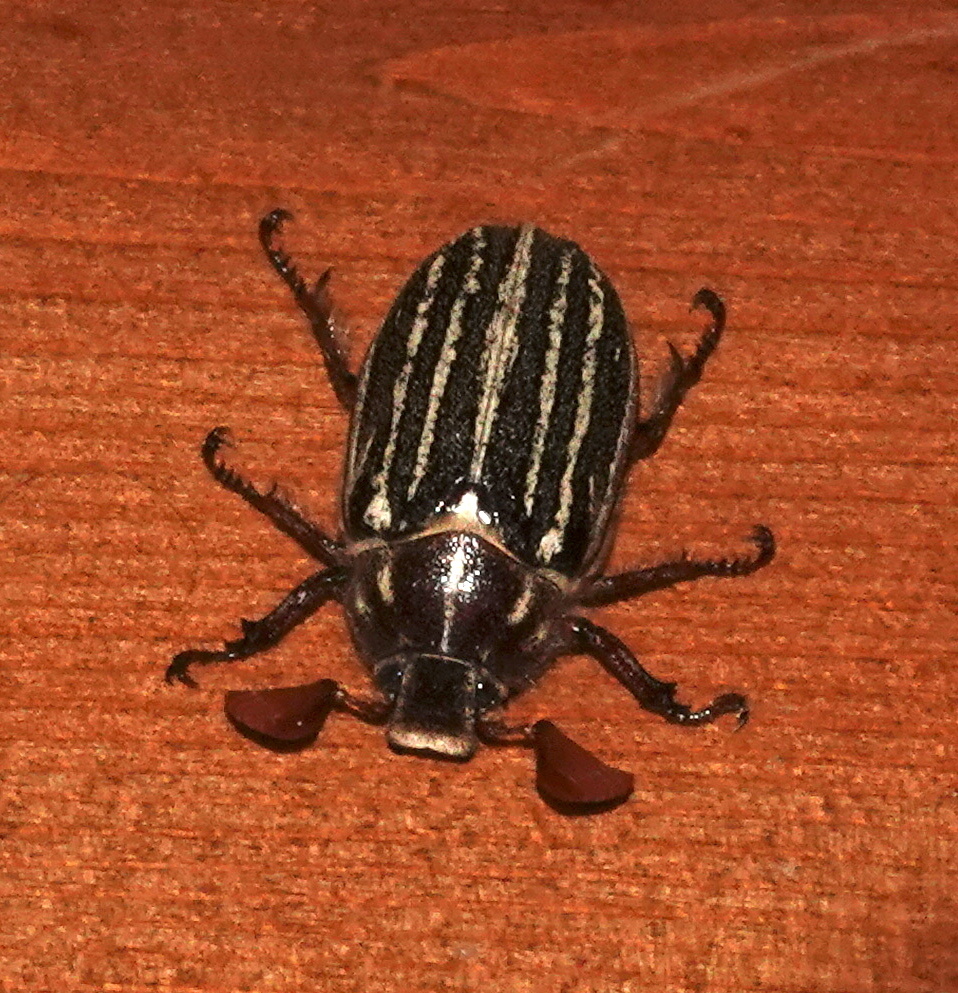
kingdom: Animalia
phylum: Arthropoda
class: Insecta
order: Coleoptera
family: Scarabaeidae
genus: Polyphylla
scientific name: Polyphylla decemlineata
